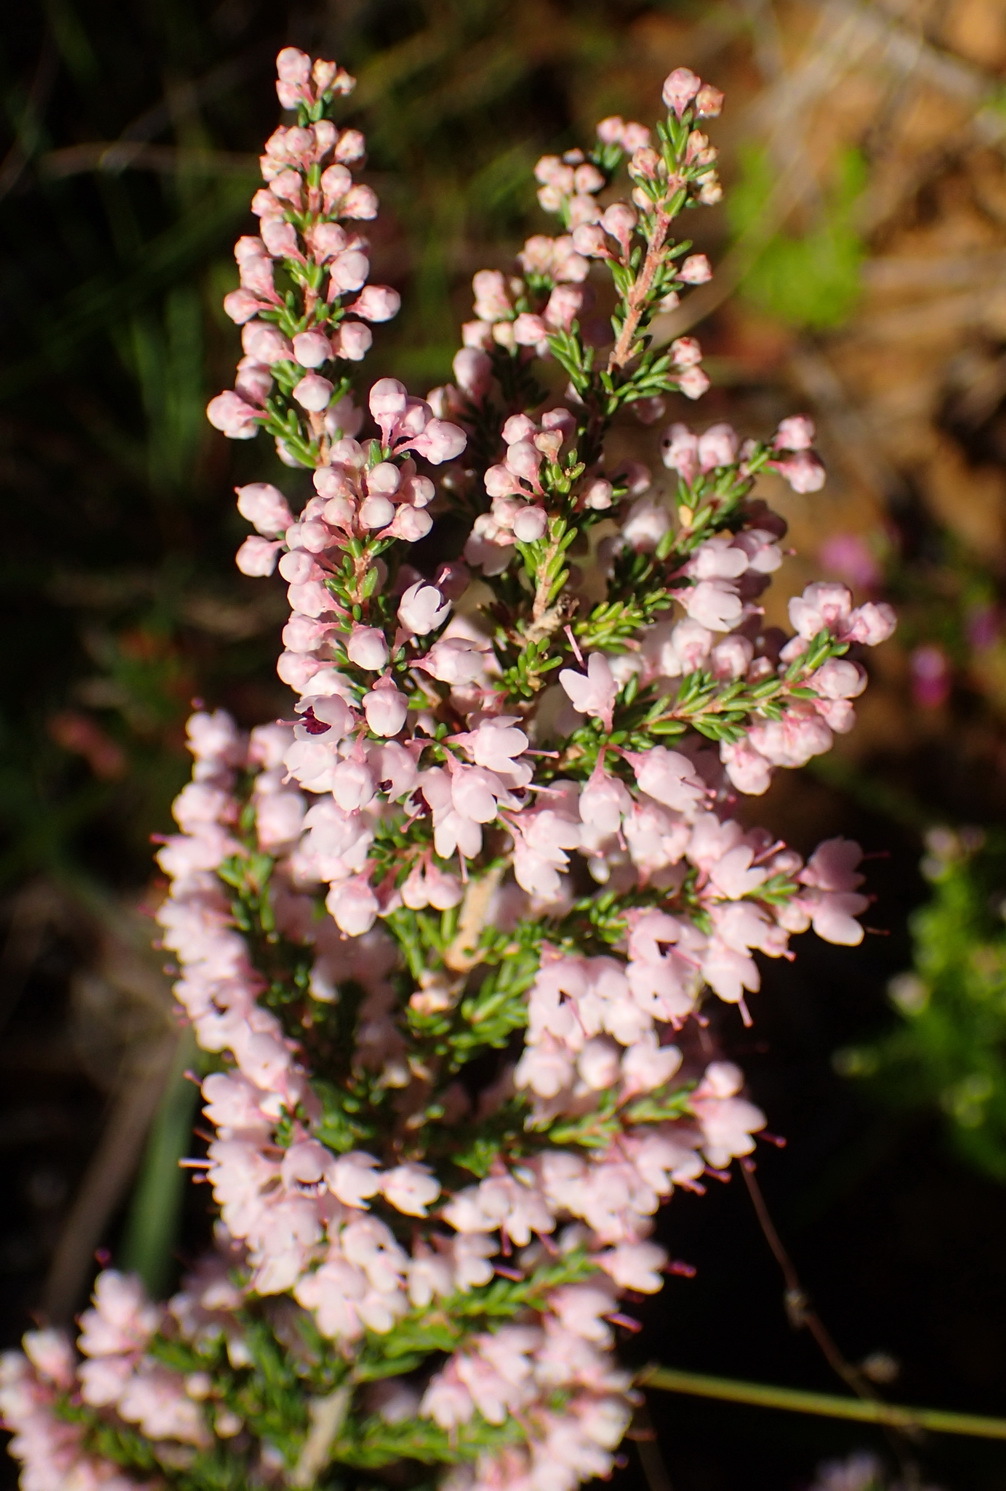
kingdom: Plantae
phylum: Tracheophyta
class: Magnoliopsida
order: Ericales
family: Ericaceae
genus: Erica
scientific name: Erica sparsa
